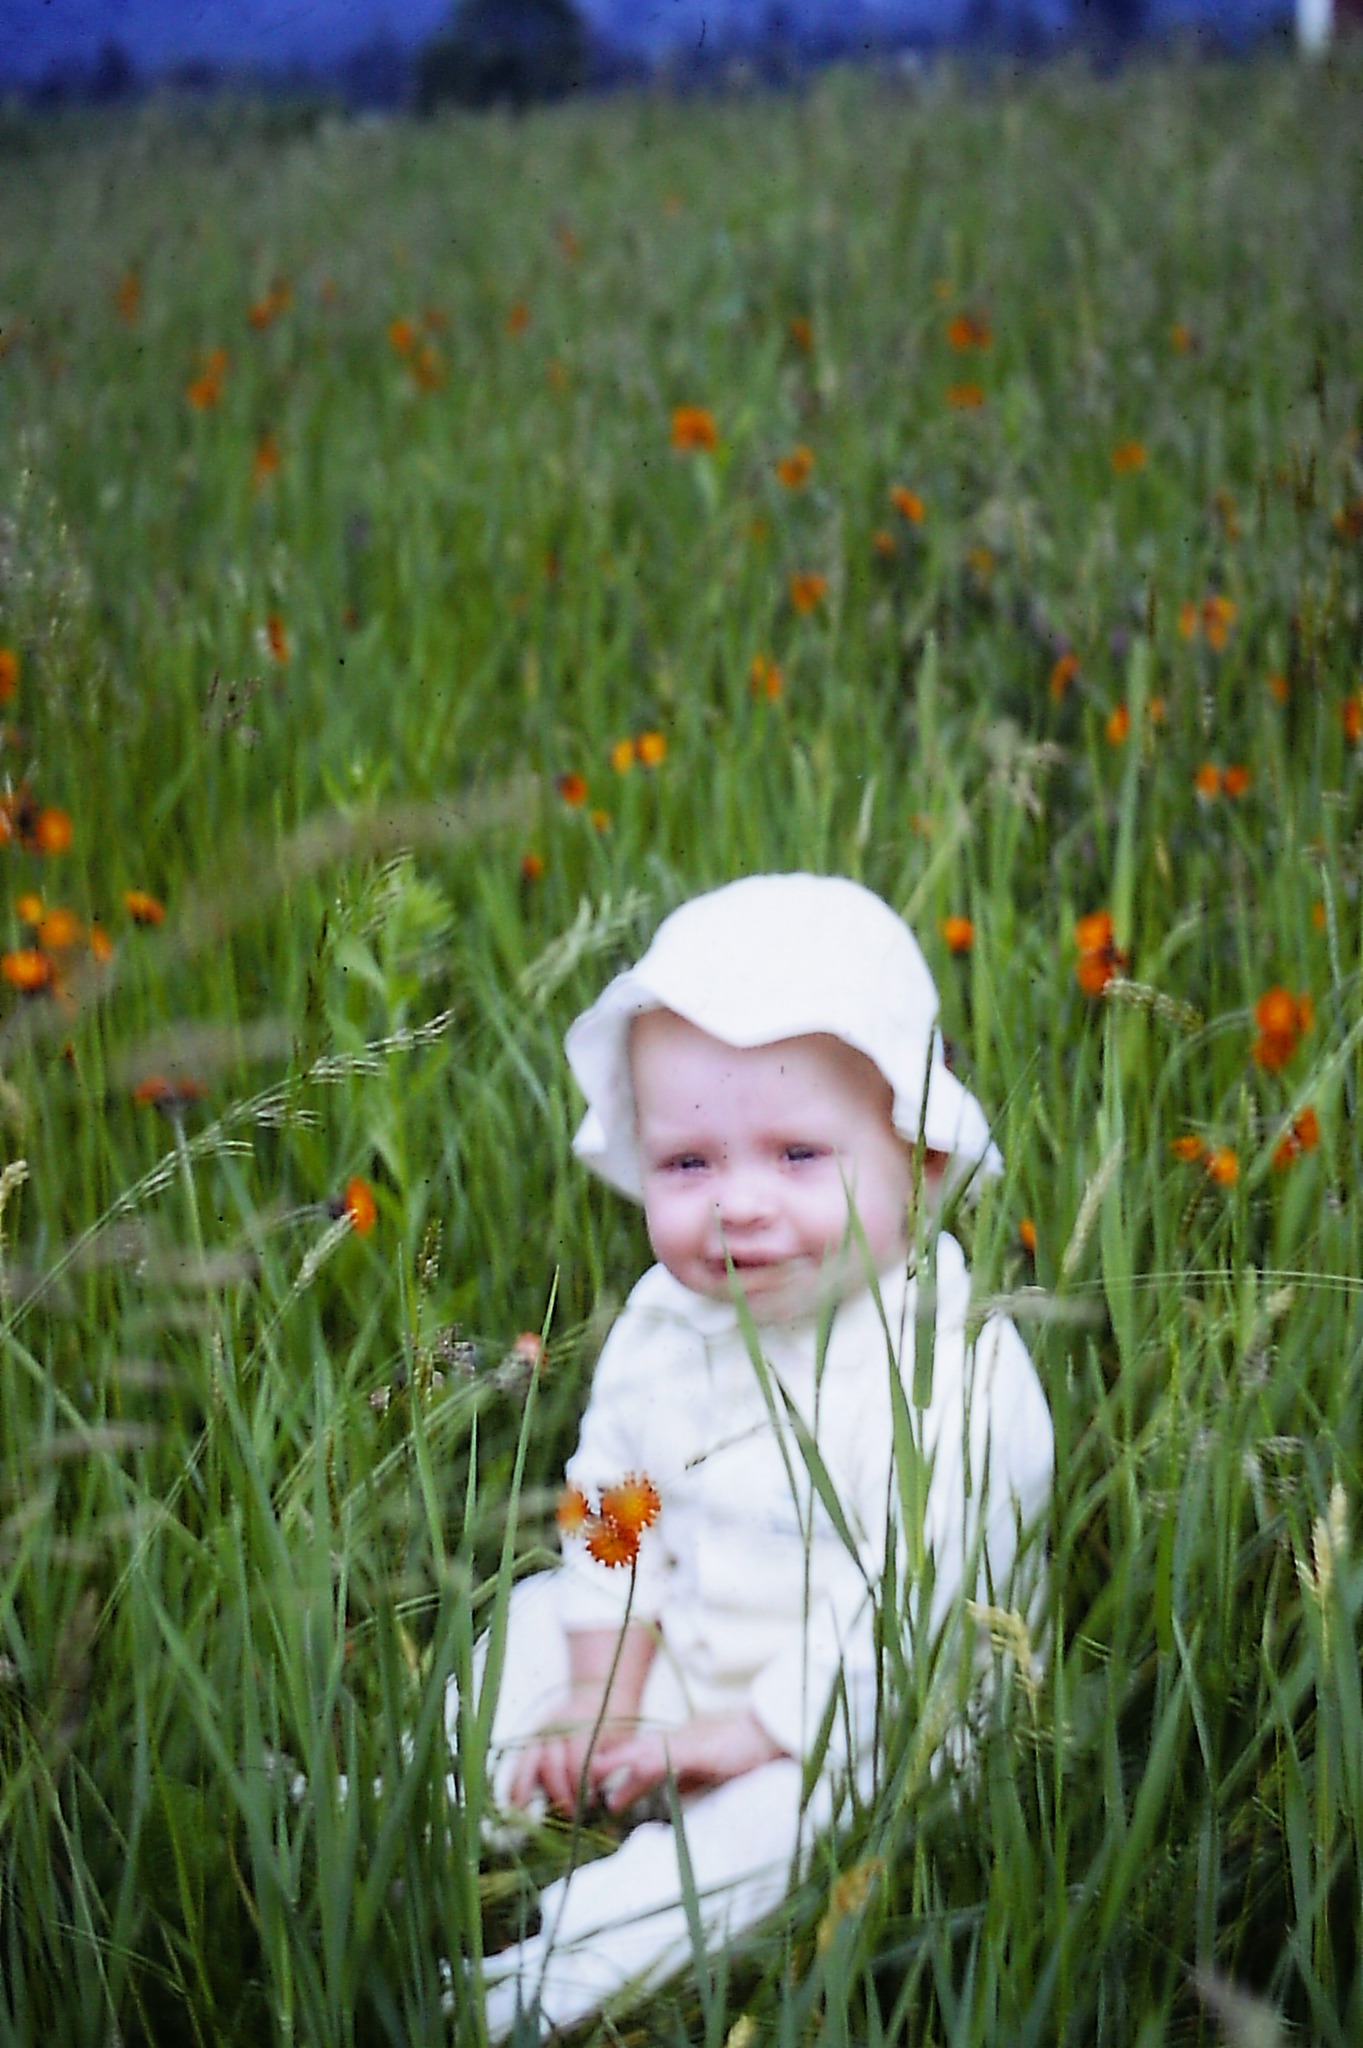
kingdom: Plantae
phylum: Tracheophyta
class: Magnoliopsida
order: Asterales
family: Asteraceae
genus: Pilosella
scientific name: Pilosella aurantiaca
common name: Fox-and-cubs
